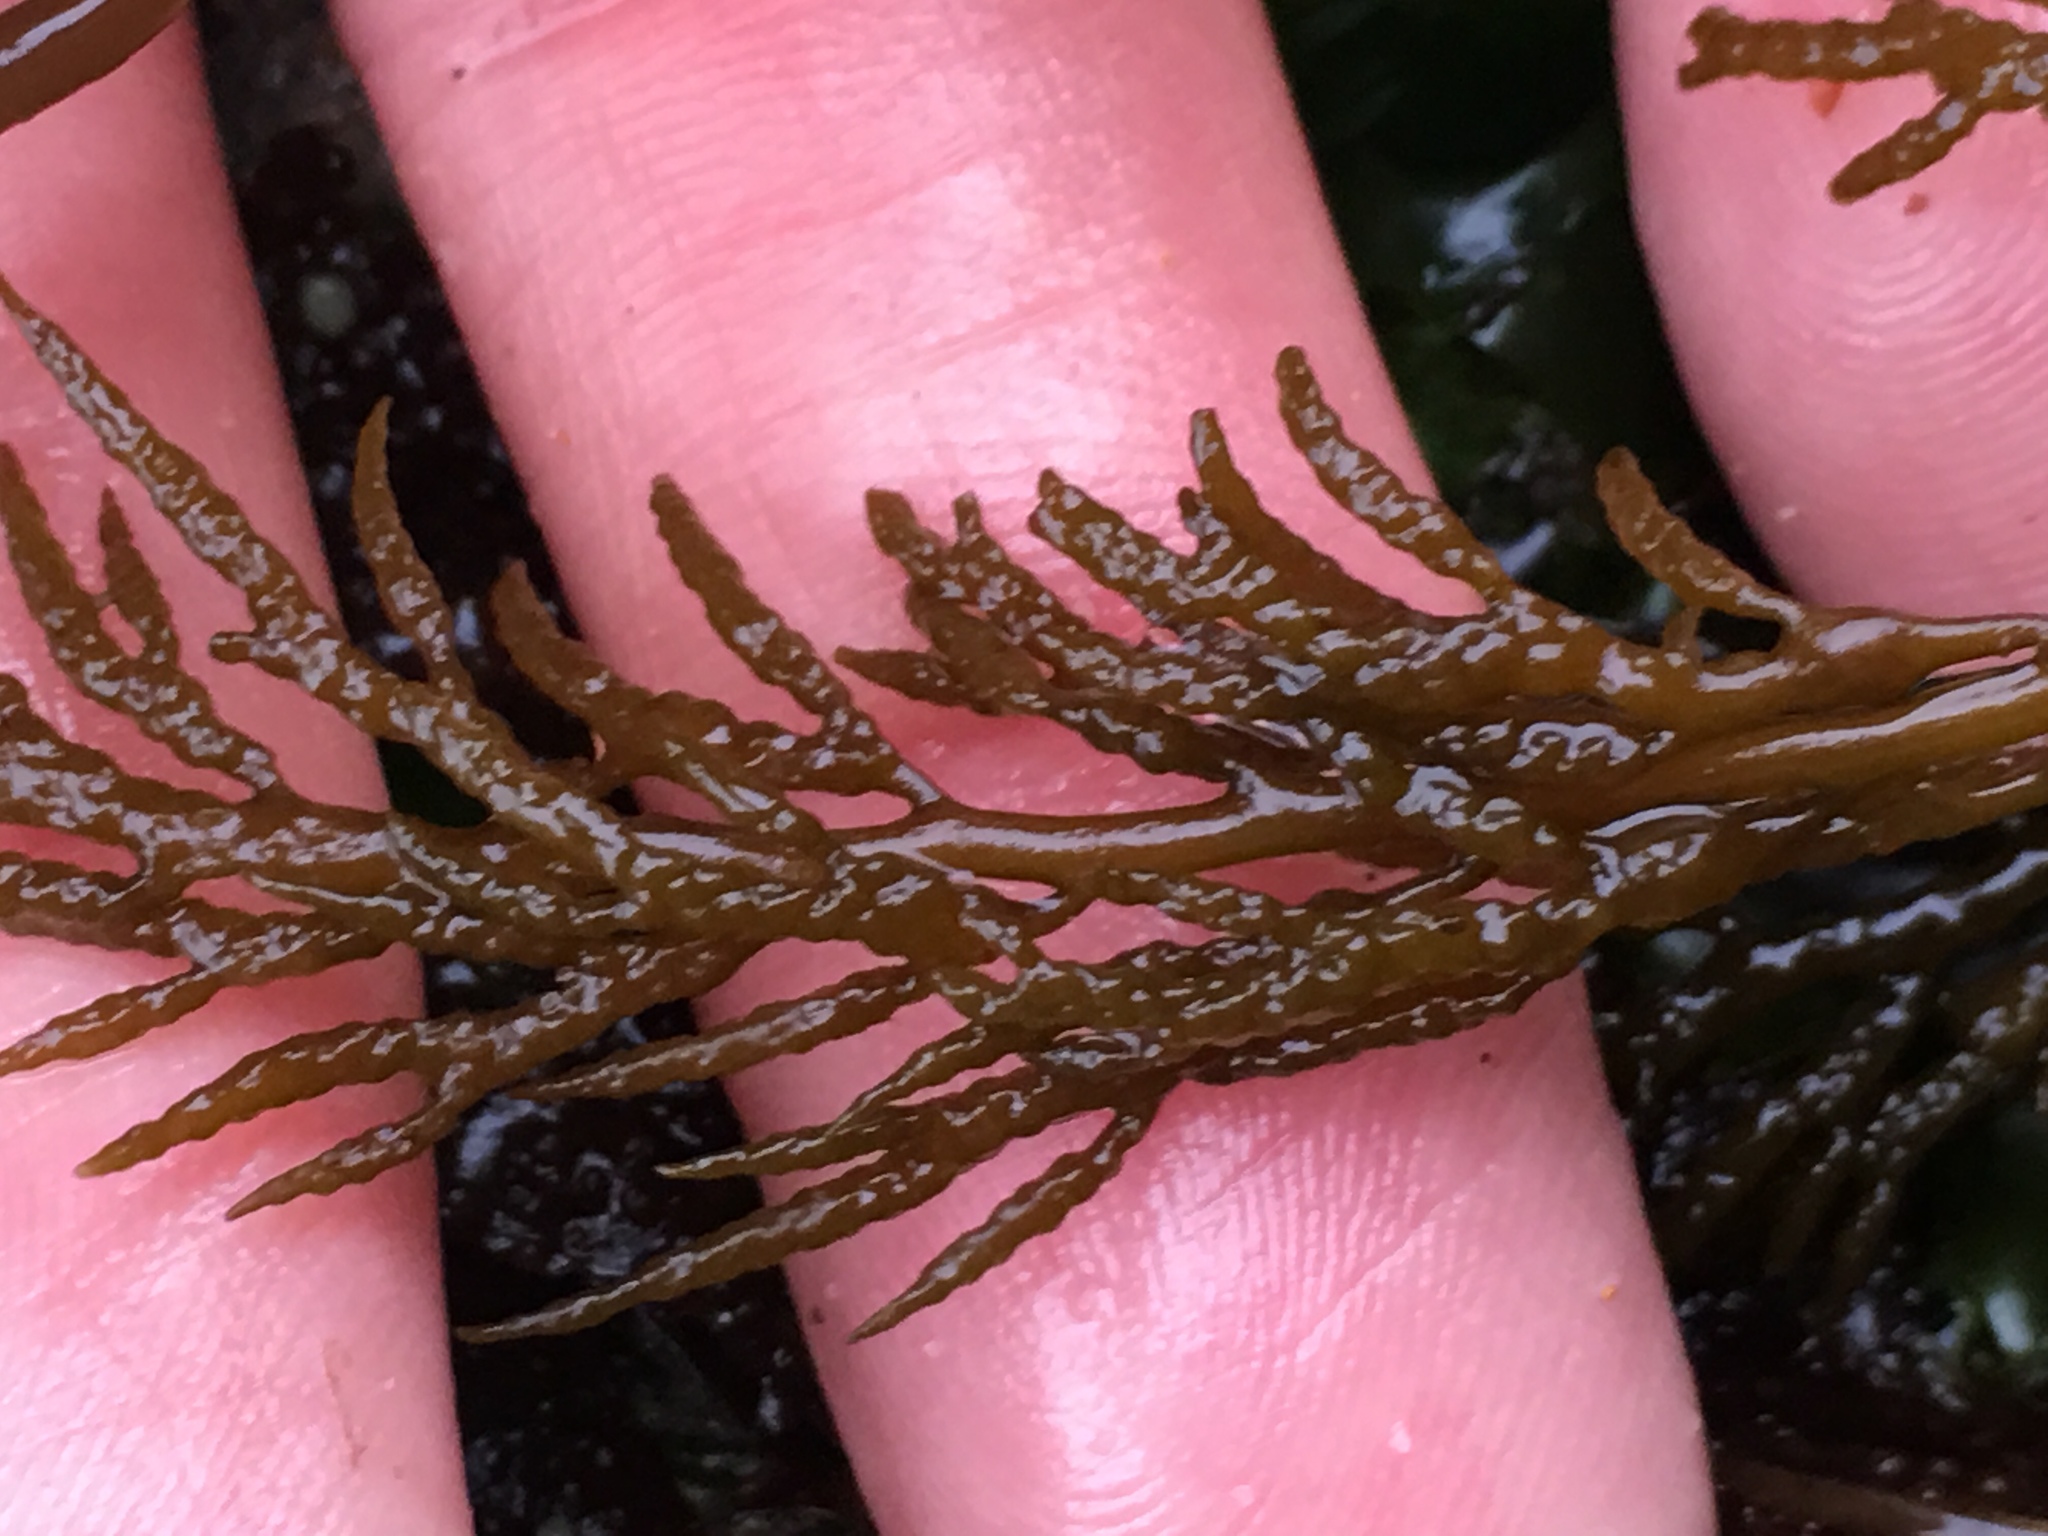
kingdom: Chromista
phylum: Ochrophyta
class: Phaeophyceae
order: Fucales
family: Sargassaceae
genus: Stephanocystis
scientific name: Stephanocystis
